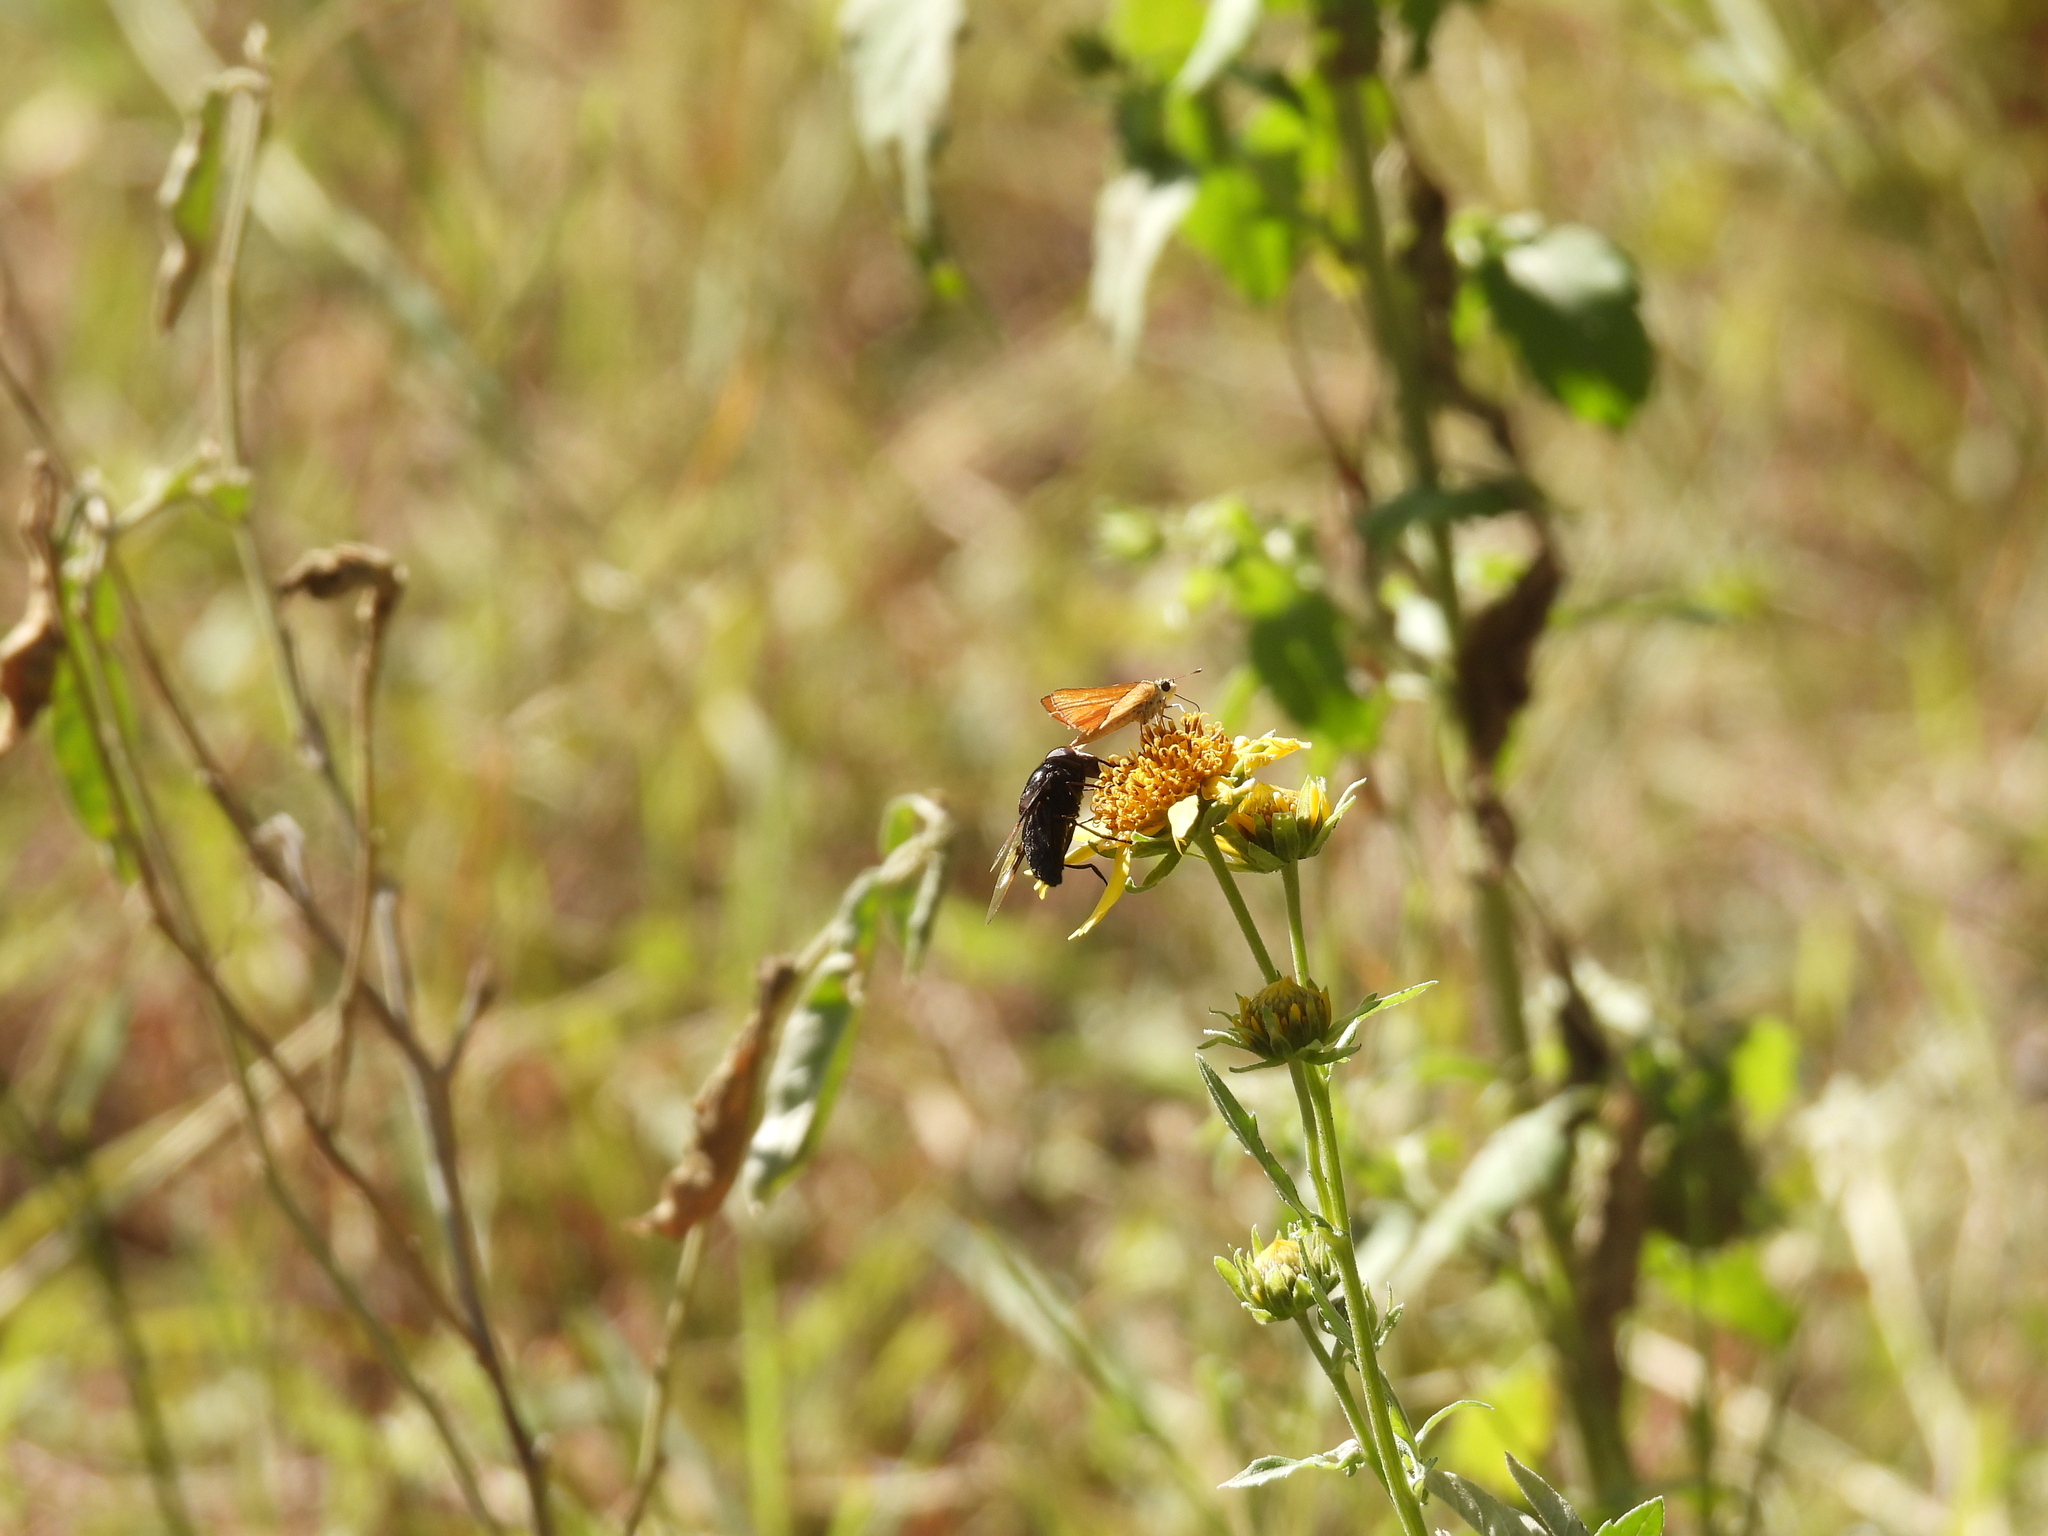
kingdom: Animalia
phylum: Arthropoda
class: Insecta
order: Diptera
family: Syrphidae
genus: Copestylum
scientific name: Copestylum mexicanum
